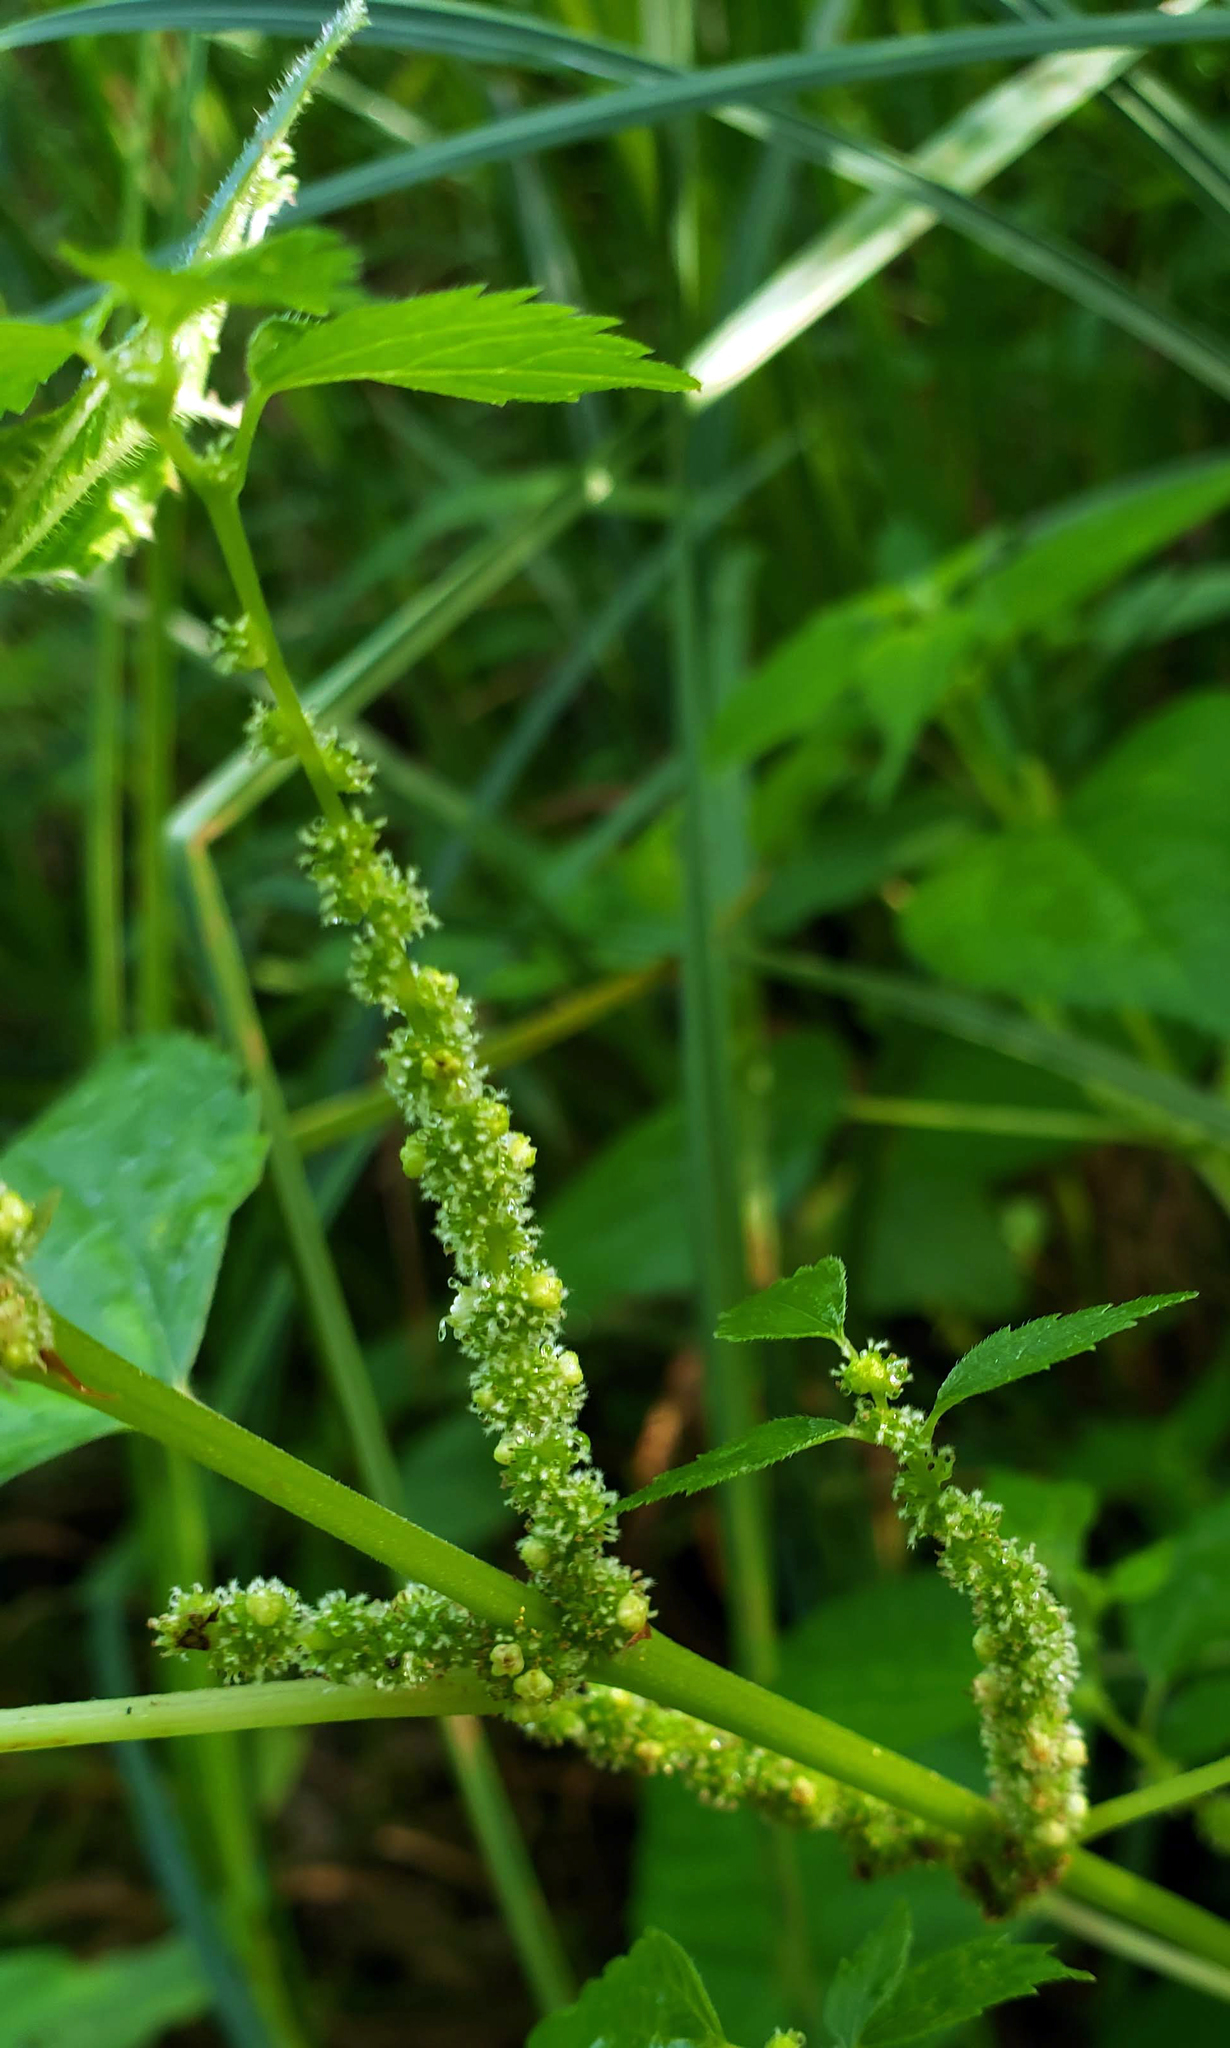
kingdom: Plantae
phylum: Tracheophyta
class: Magnoliopsida
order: Rosales
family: Urticaceae
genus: Boehmeria
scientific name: Boehmeria cylindrica
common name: Bog-hemp
